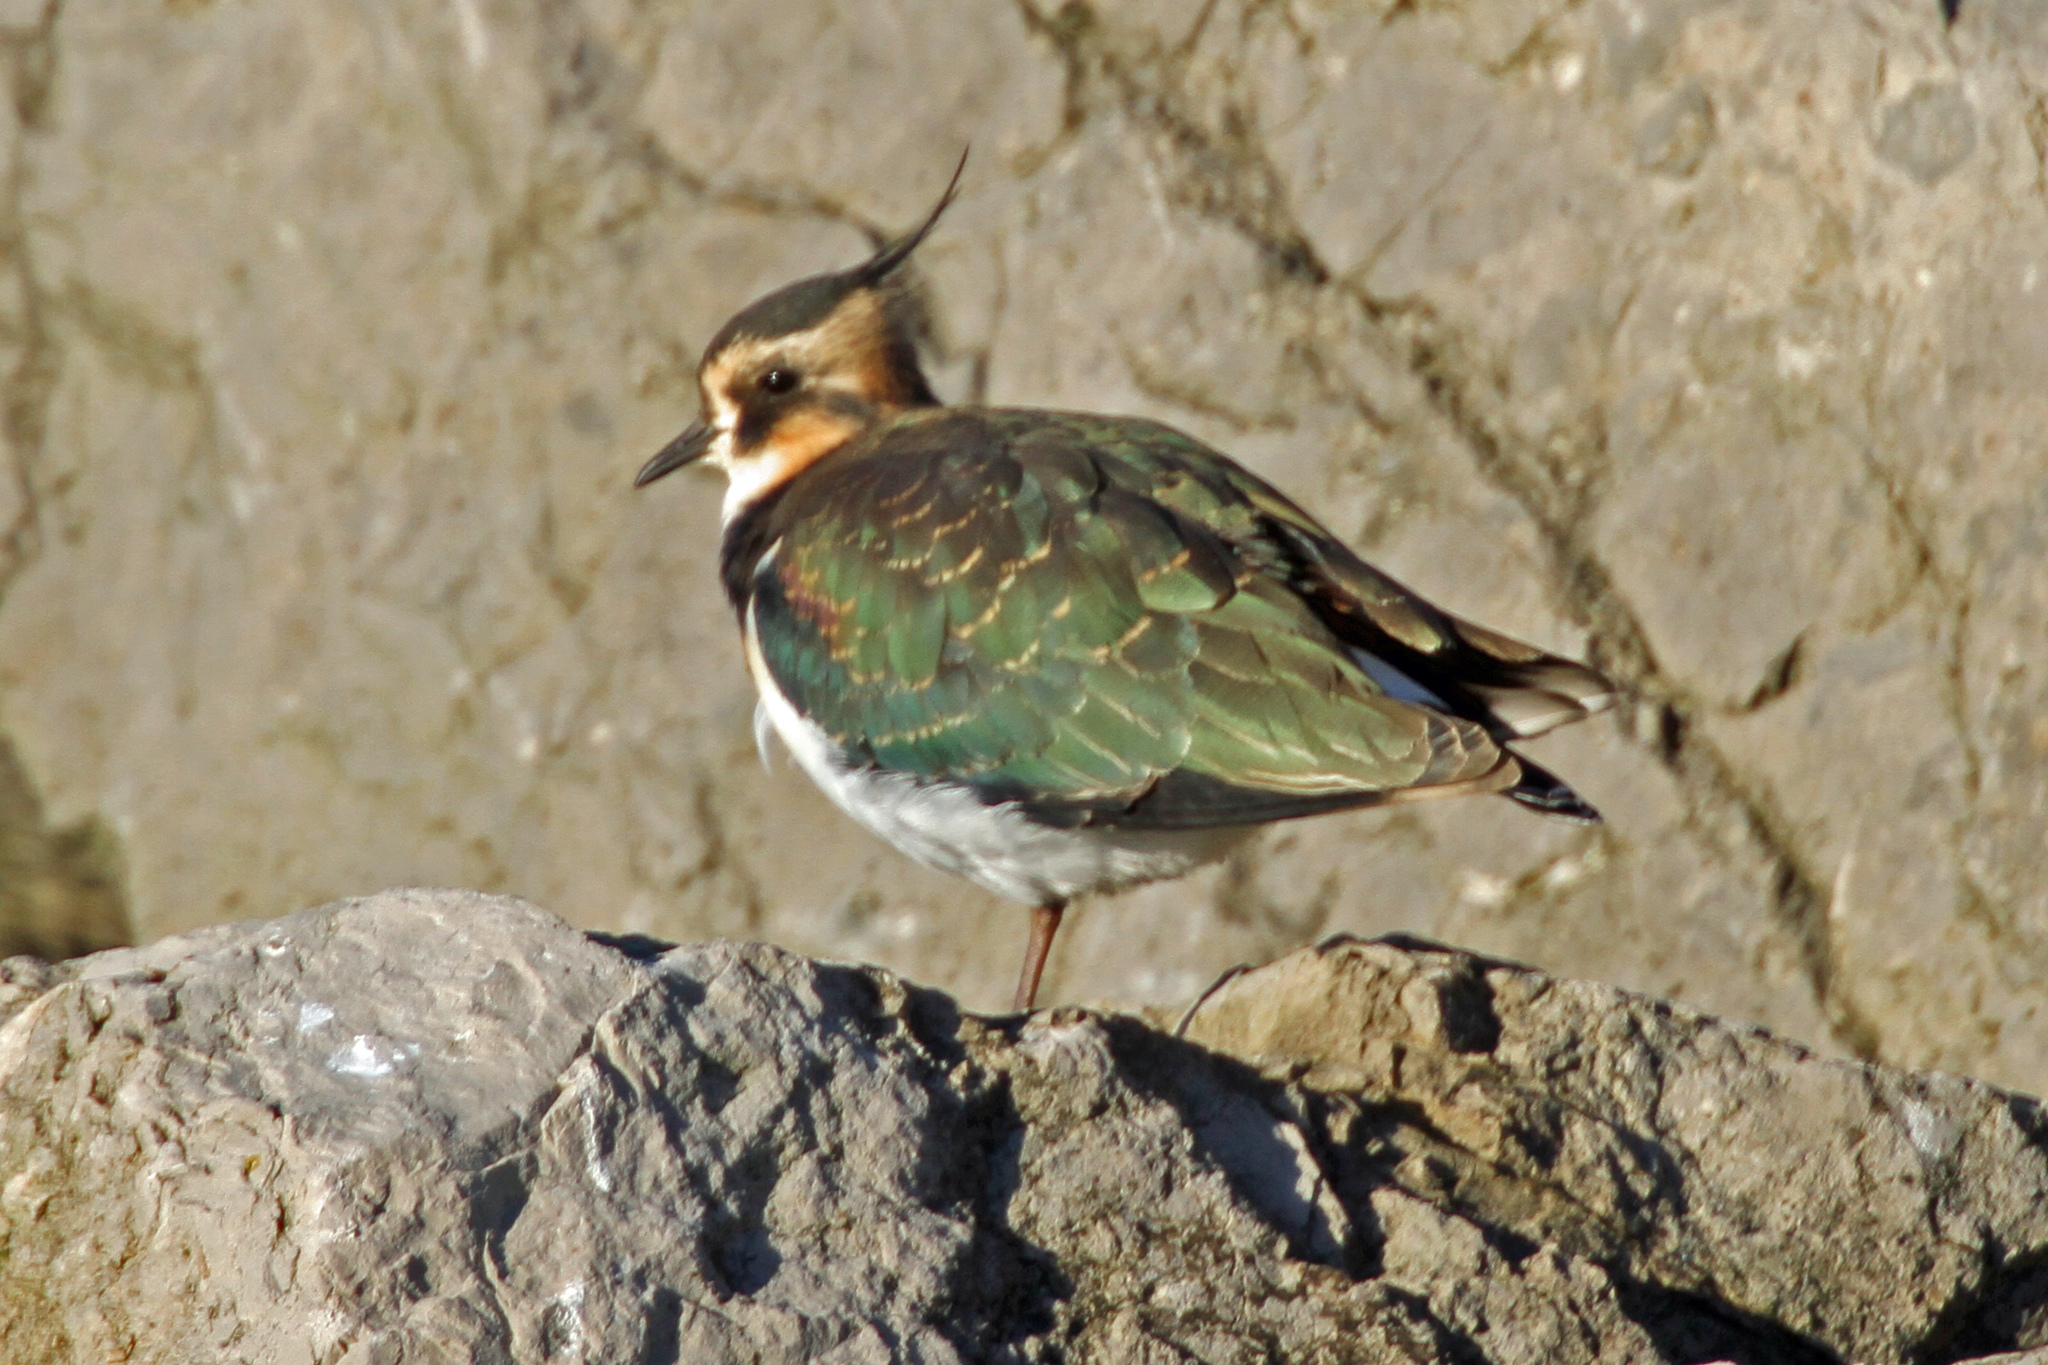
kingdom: Animalia
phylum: Chordata
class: Aves
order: Charadriiformes
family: Charadriidae
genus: Vanellus
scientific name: Vanellus vanellus
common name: Northern lapwing
